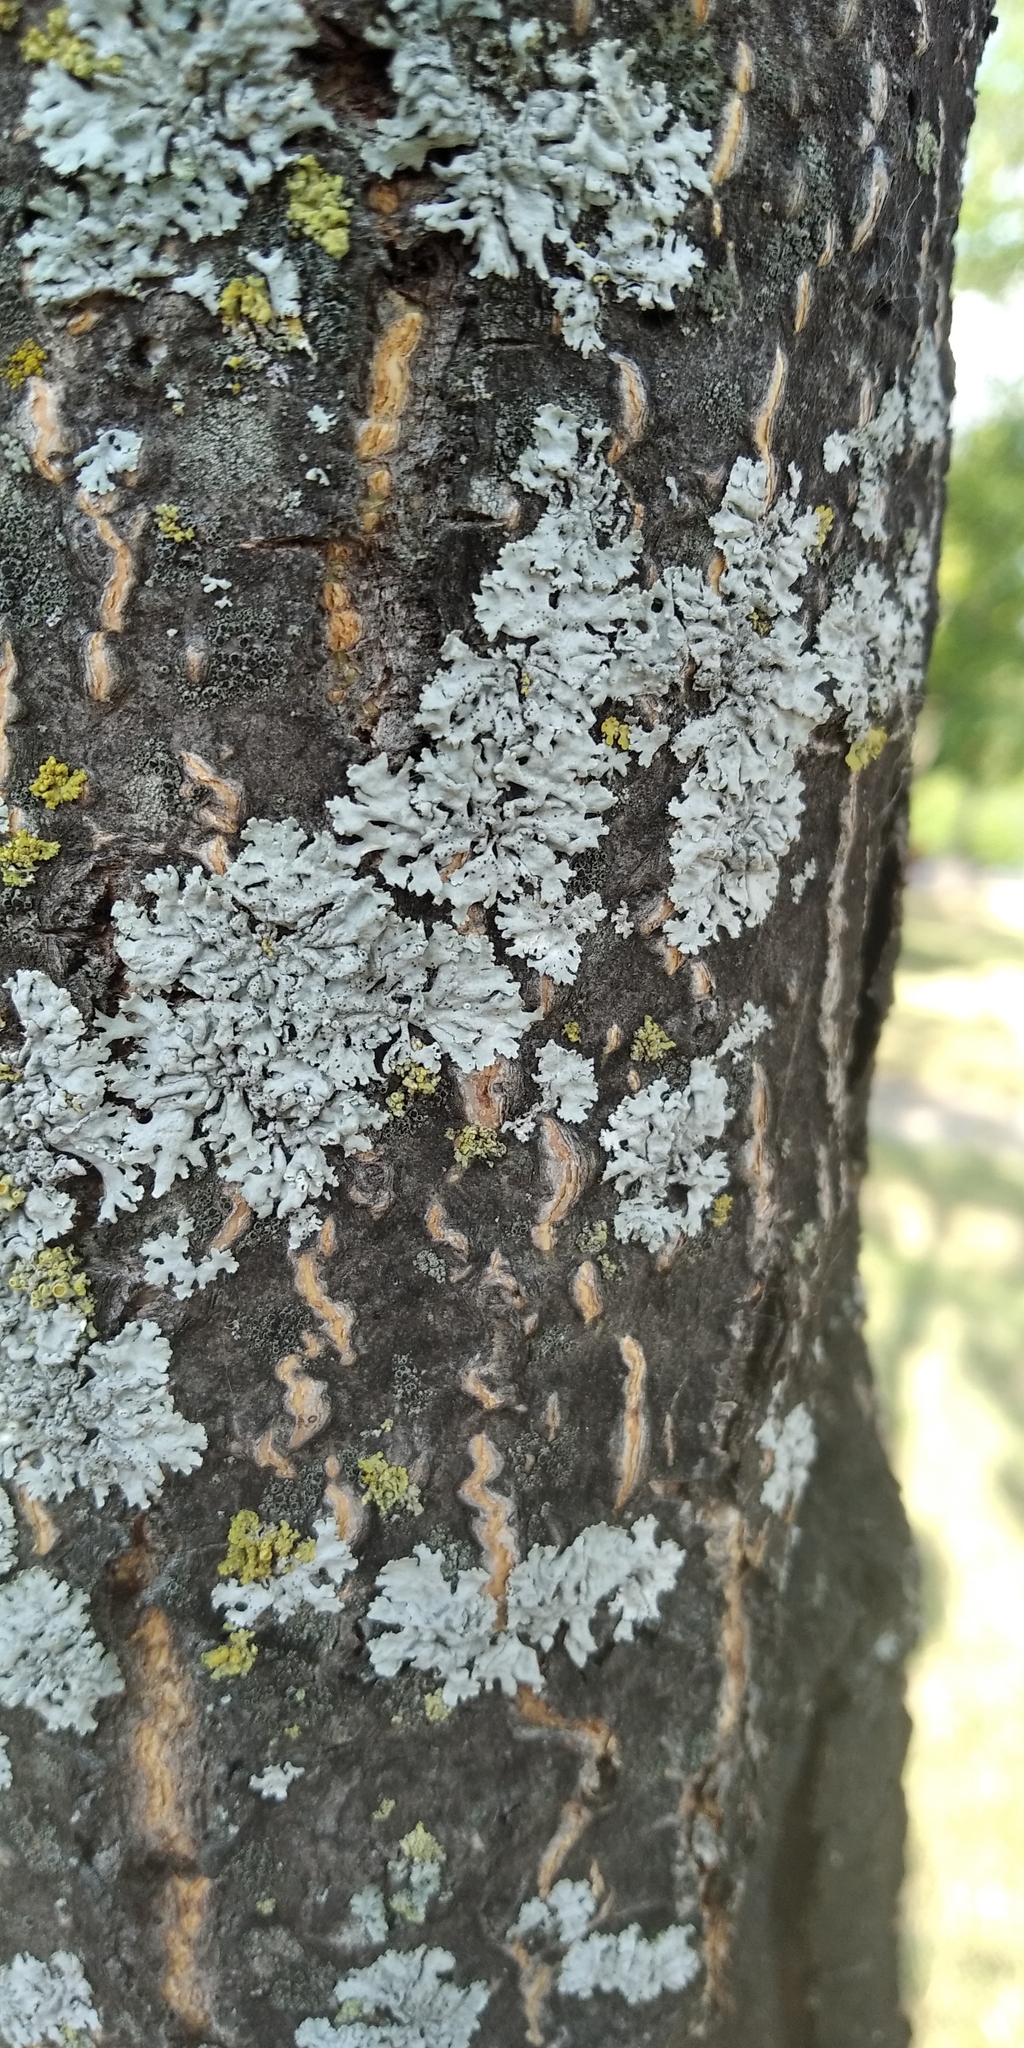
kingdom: Fungi
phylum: Ascomycota
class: Lecanoromycetes
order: Caliciales
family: Physciaceae
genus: Physcia
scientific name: Physcia stellaris
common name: Star rosette lichen
